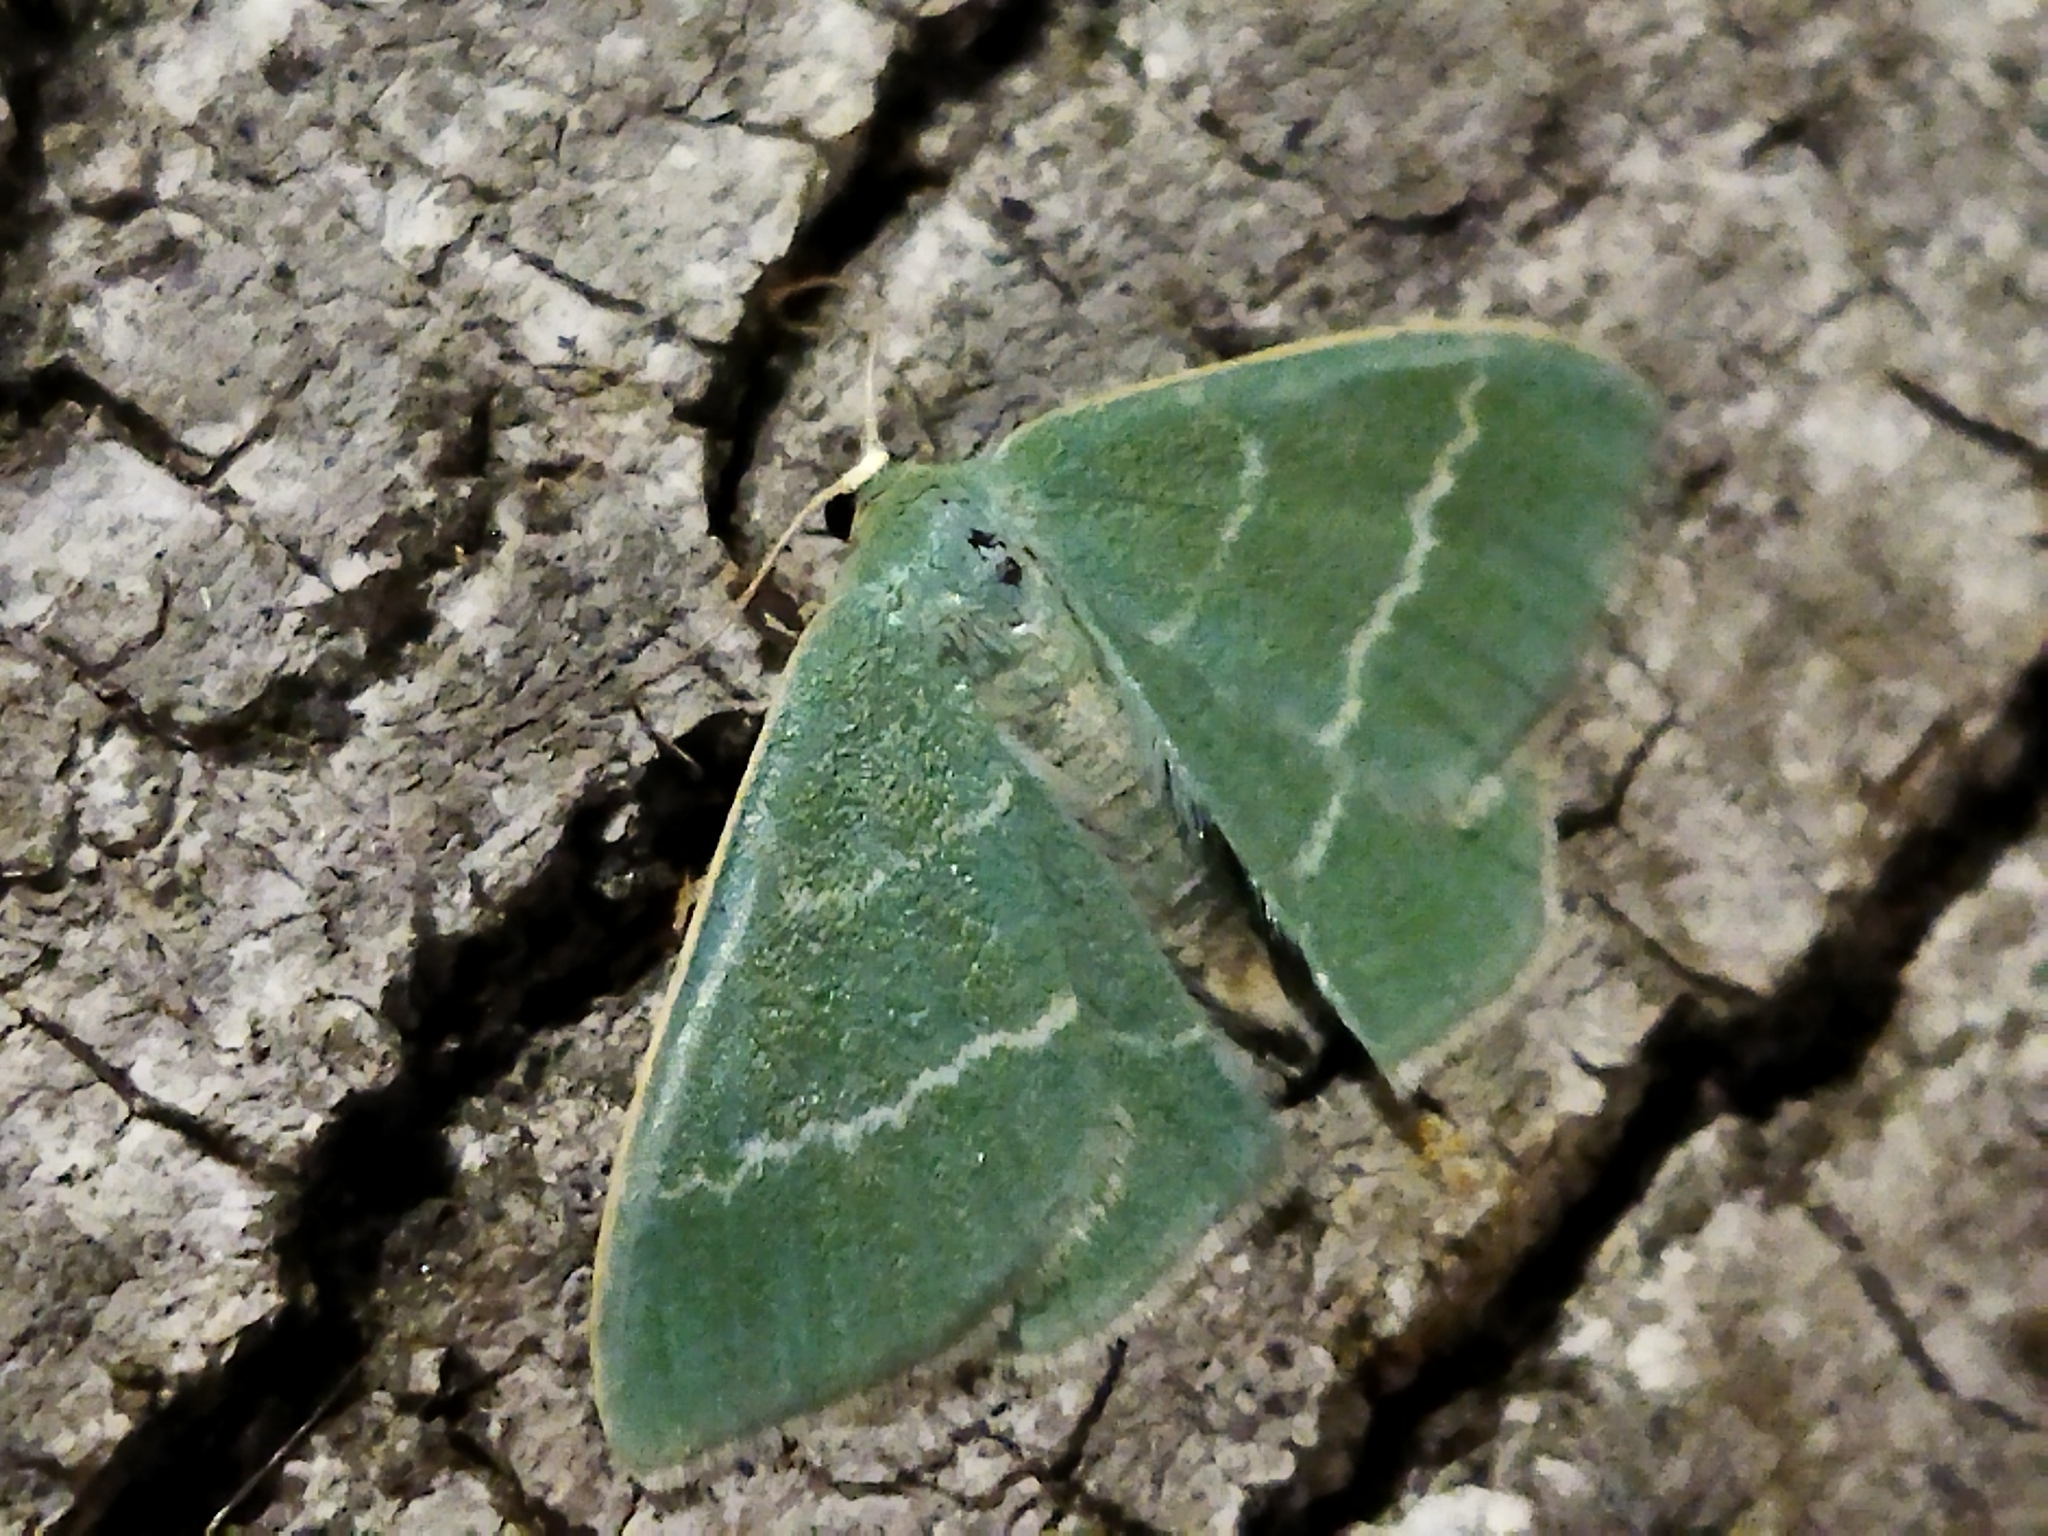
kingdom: Animalia
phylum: Arthropoda
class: Insecta
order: Lepidoptera
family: Geometridae
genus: Chlorissa
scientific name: Chlorissa viridata
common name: Small grass emerald
